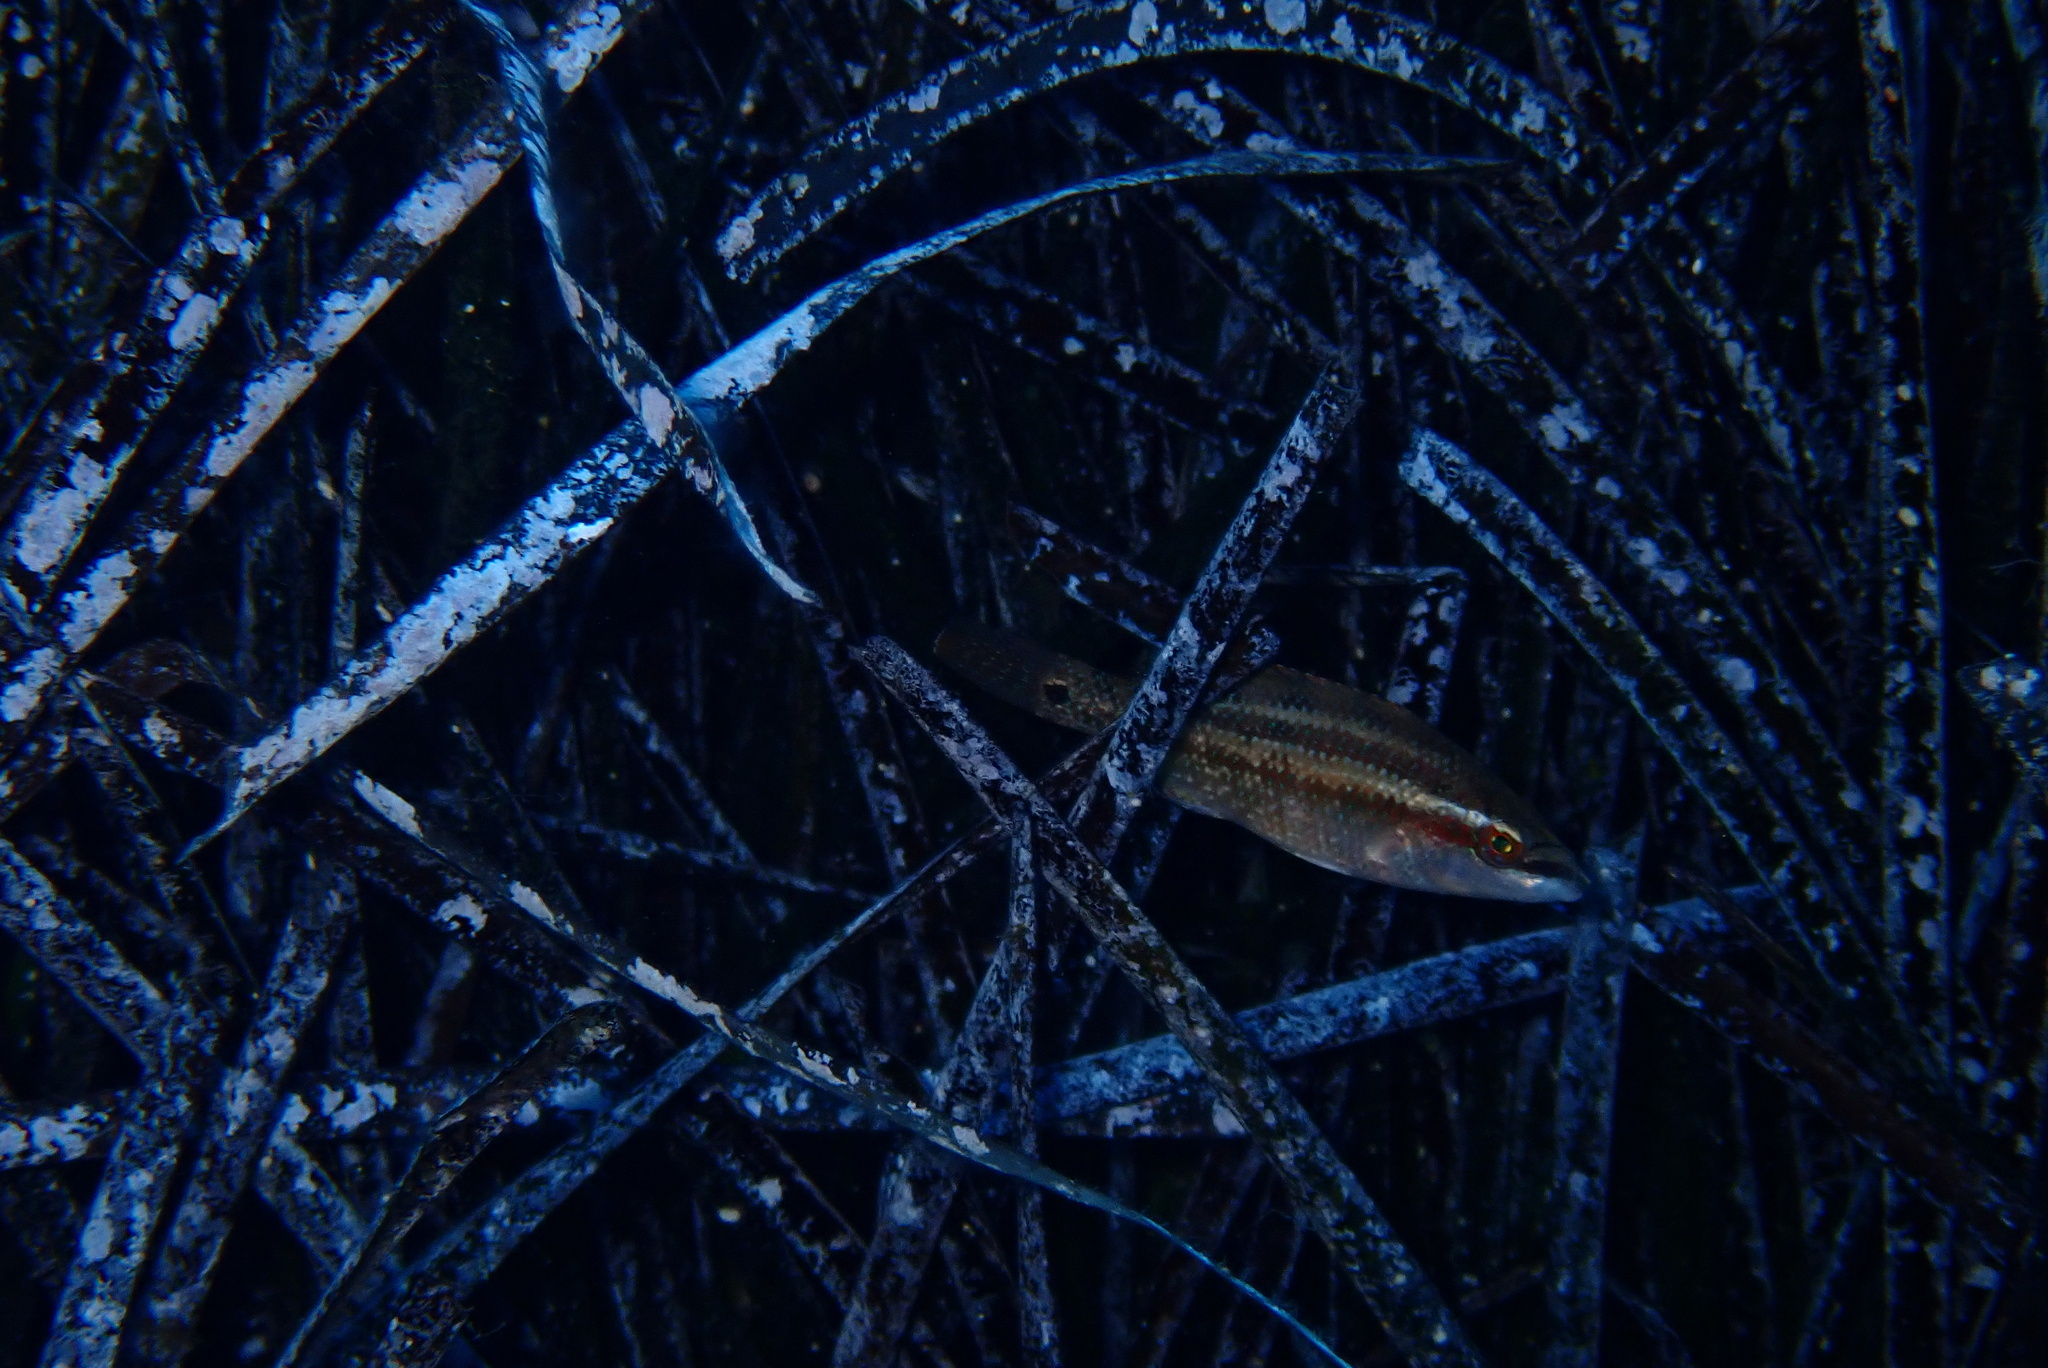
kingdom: Animalia
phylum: Chordata
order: Perciformes
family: Labridae
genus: Symphodus
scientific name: Symphodus tinca
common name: Peacock wrasse
